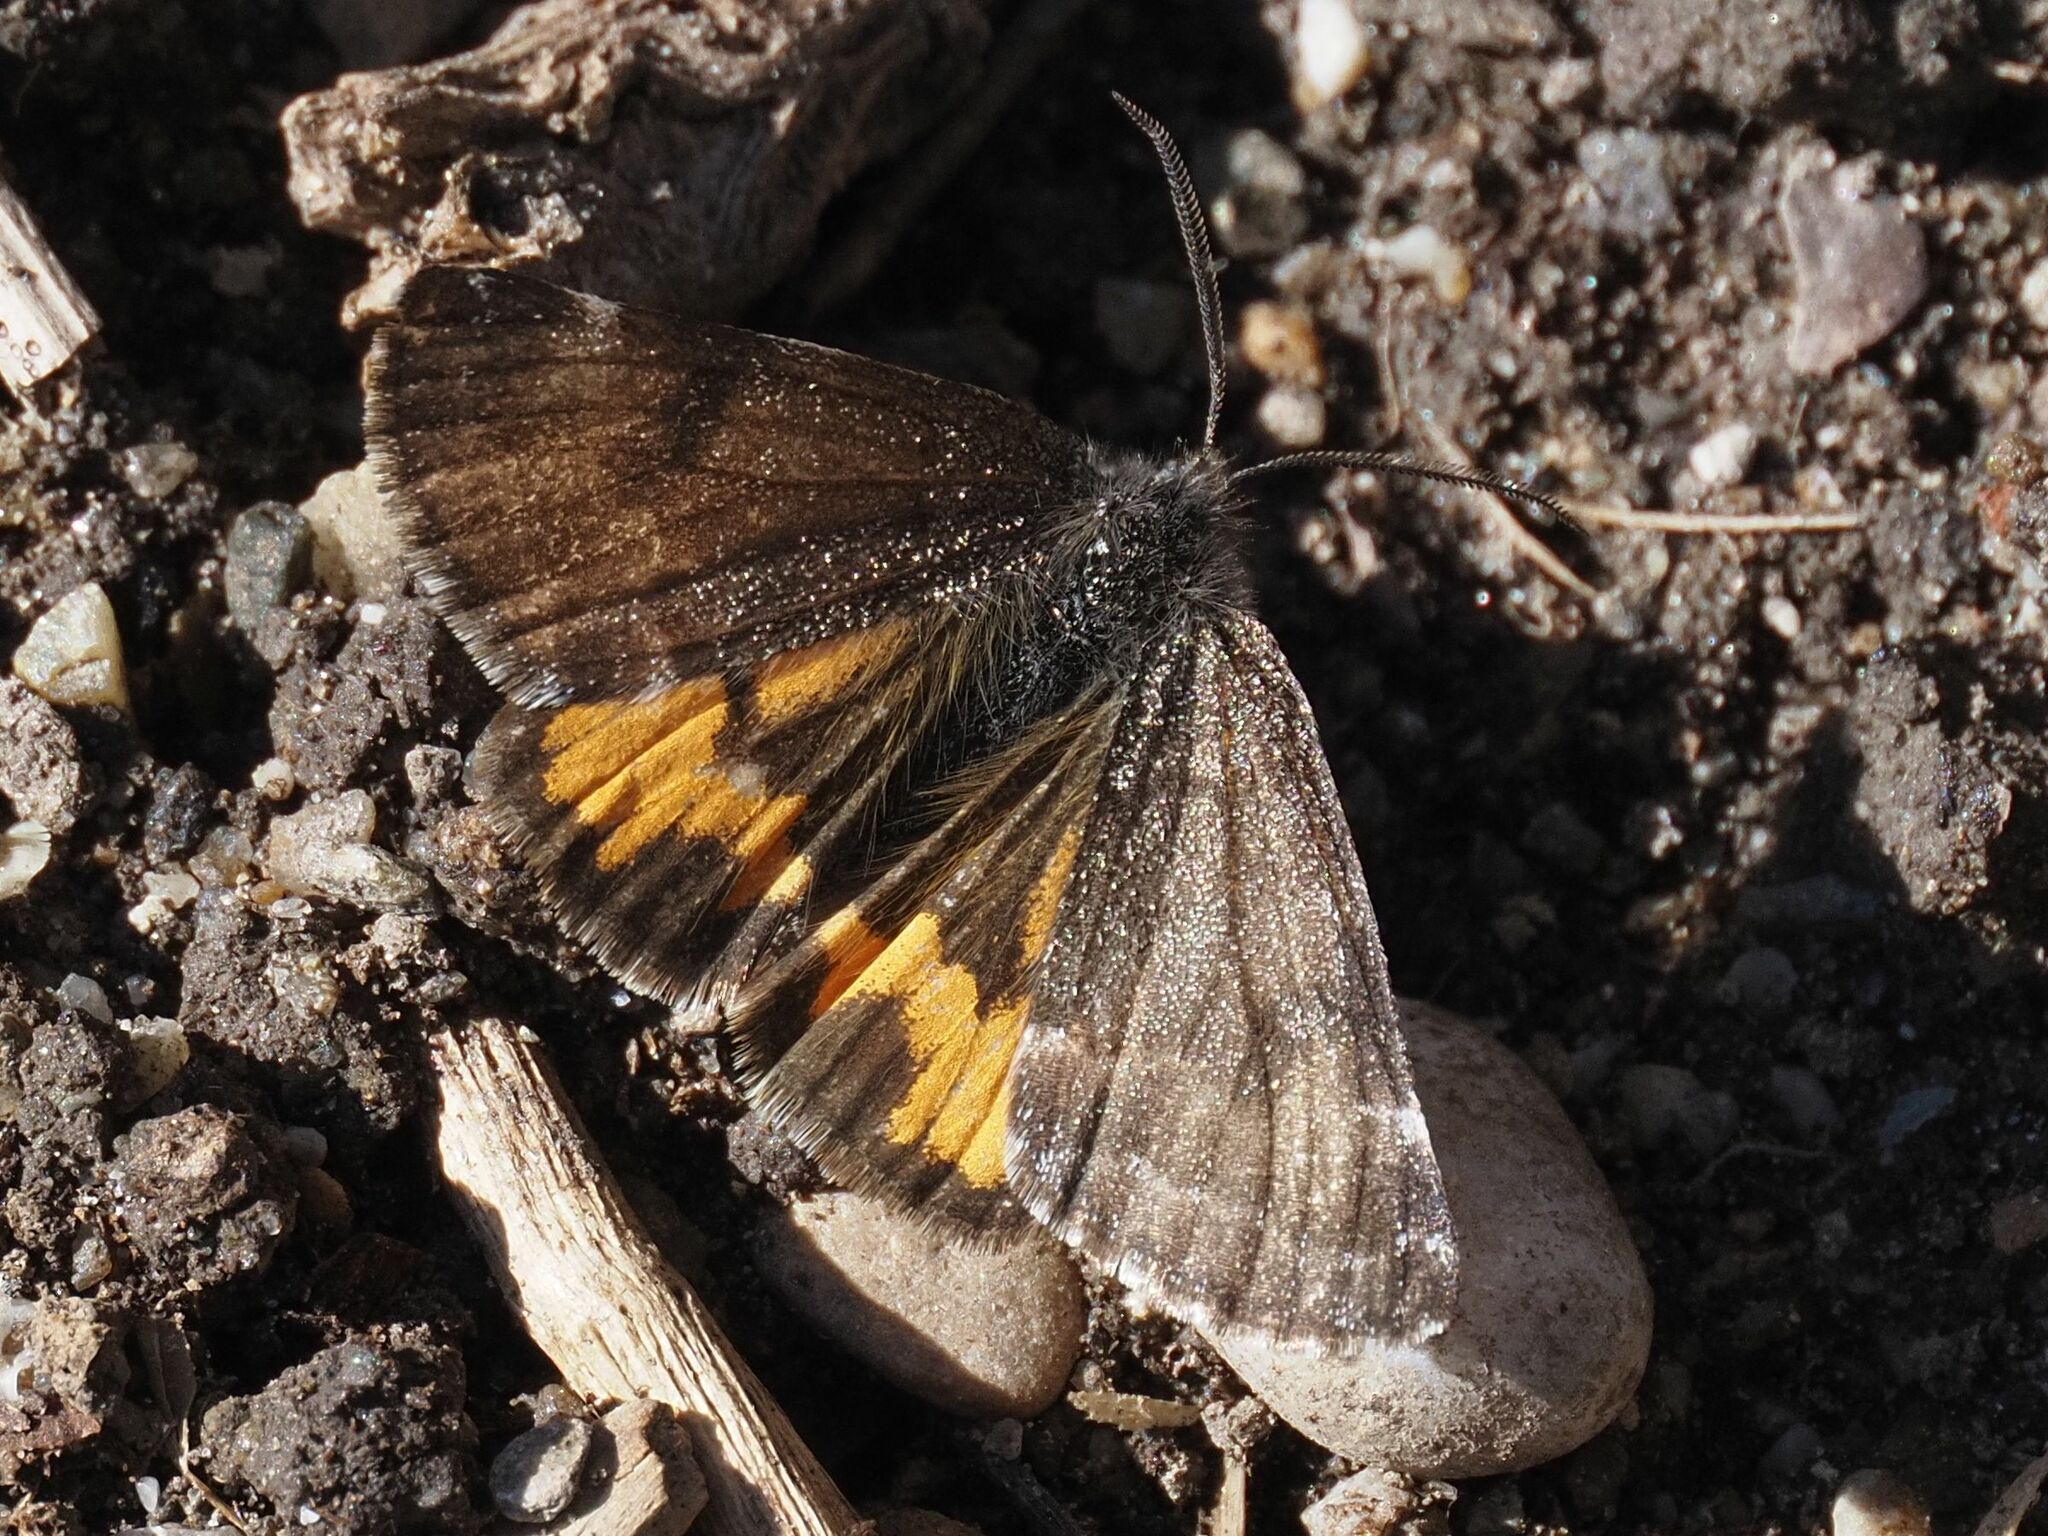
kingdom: Animalia
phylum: Arthropoda
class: Insecta
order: Lepidoptera
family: Geometridae
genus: Archiearis
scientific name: Archiearis notha
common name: Light orange underwing
